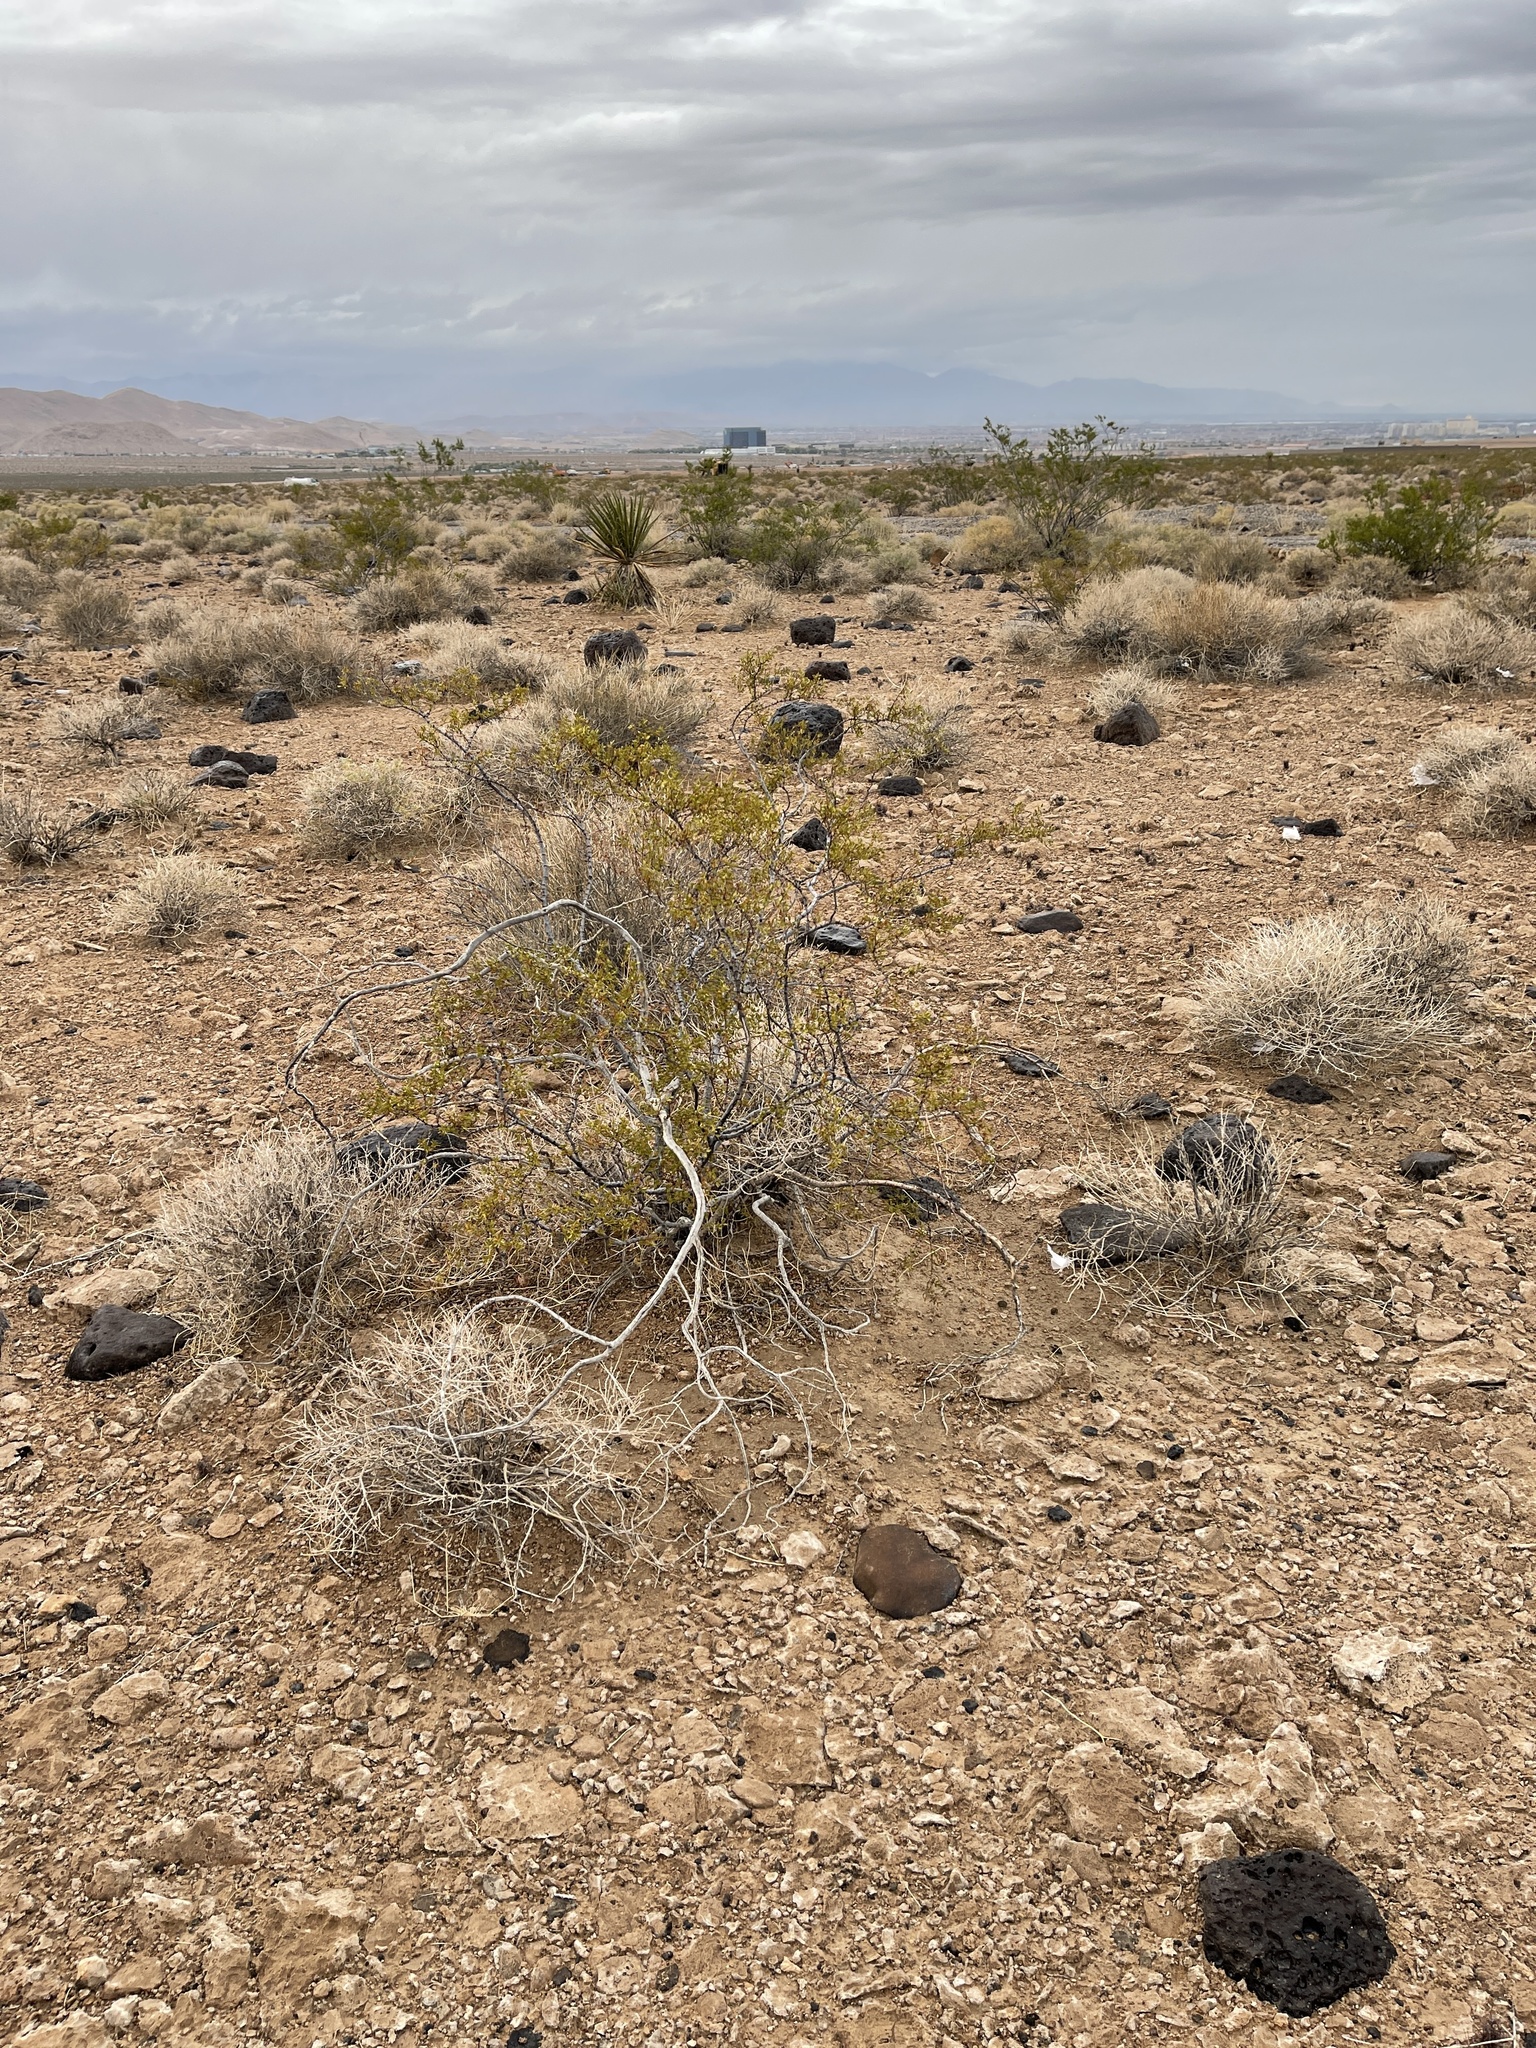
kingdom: Plantae
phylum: Tracheophyta
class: Magnoliopsida
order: Zygophyllales
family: Zygophyllaceae
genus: Larrea
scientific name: Larrea tridentata
